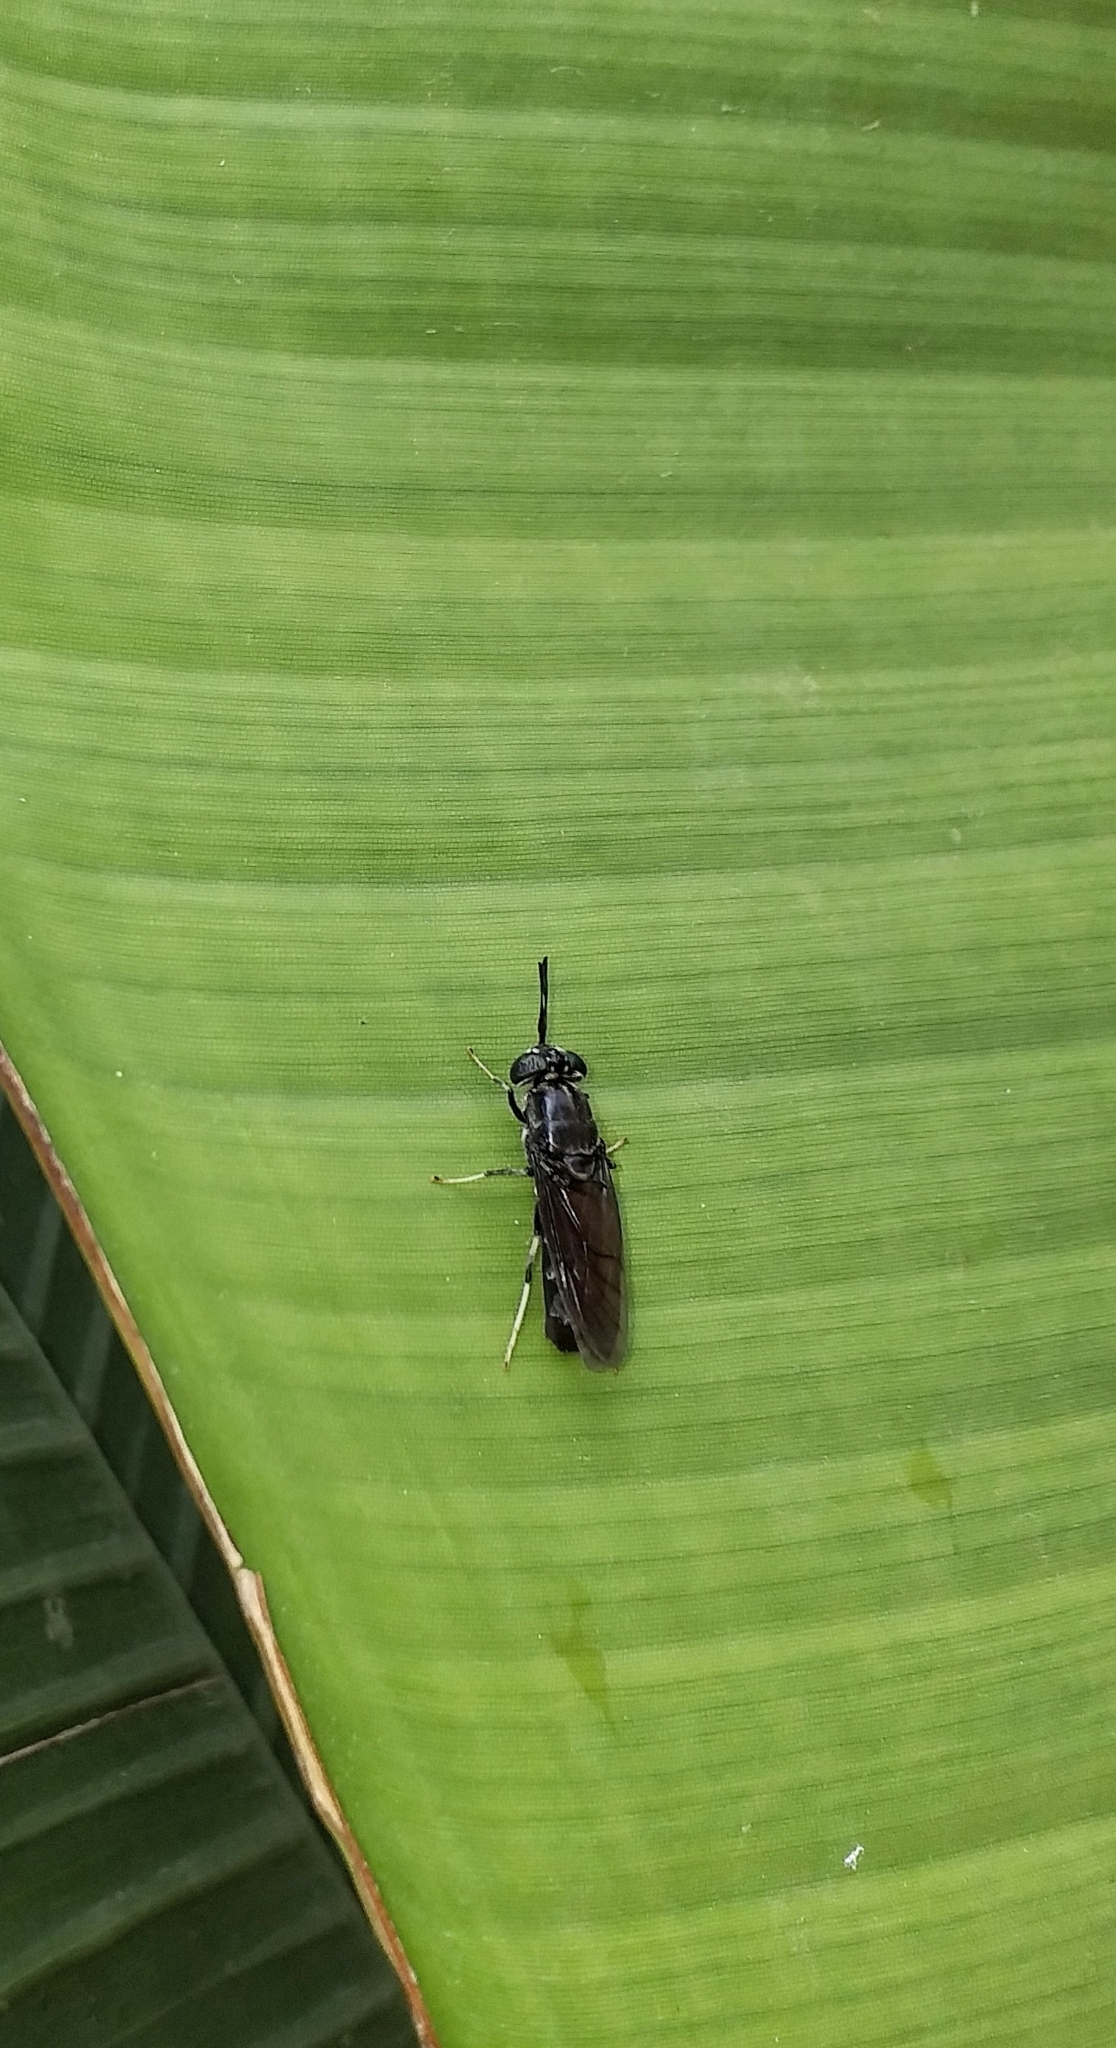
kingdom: Animalia
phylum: Arthropoda
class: Insecta
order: Diptera
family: Stratiomyidae
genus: Hermetia
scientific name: Hermetia illucens
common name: Black soldier fly
